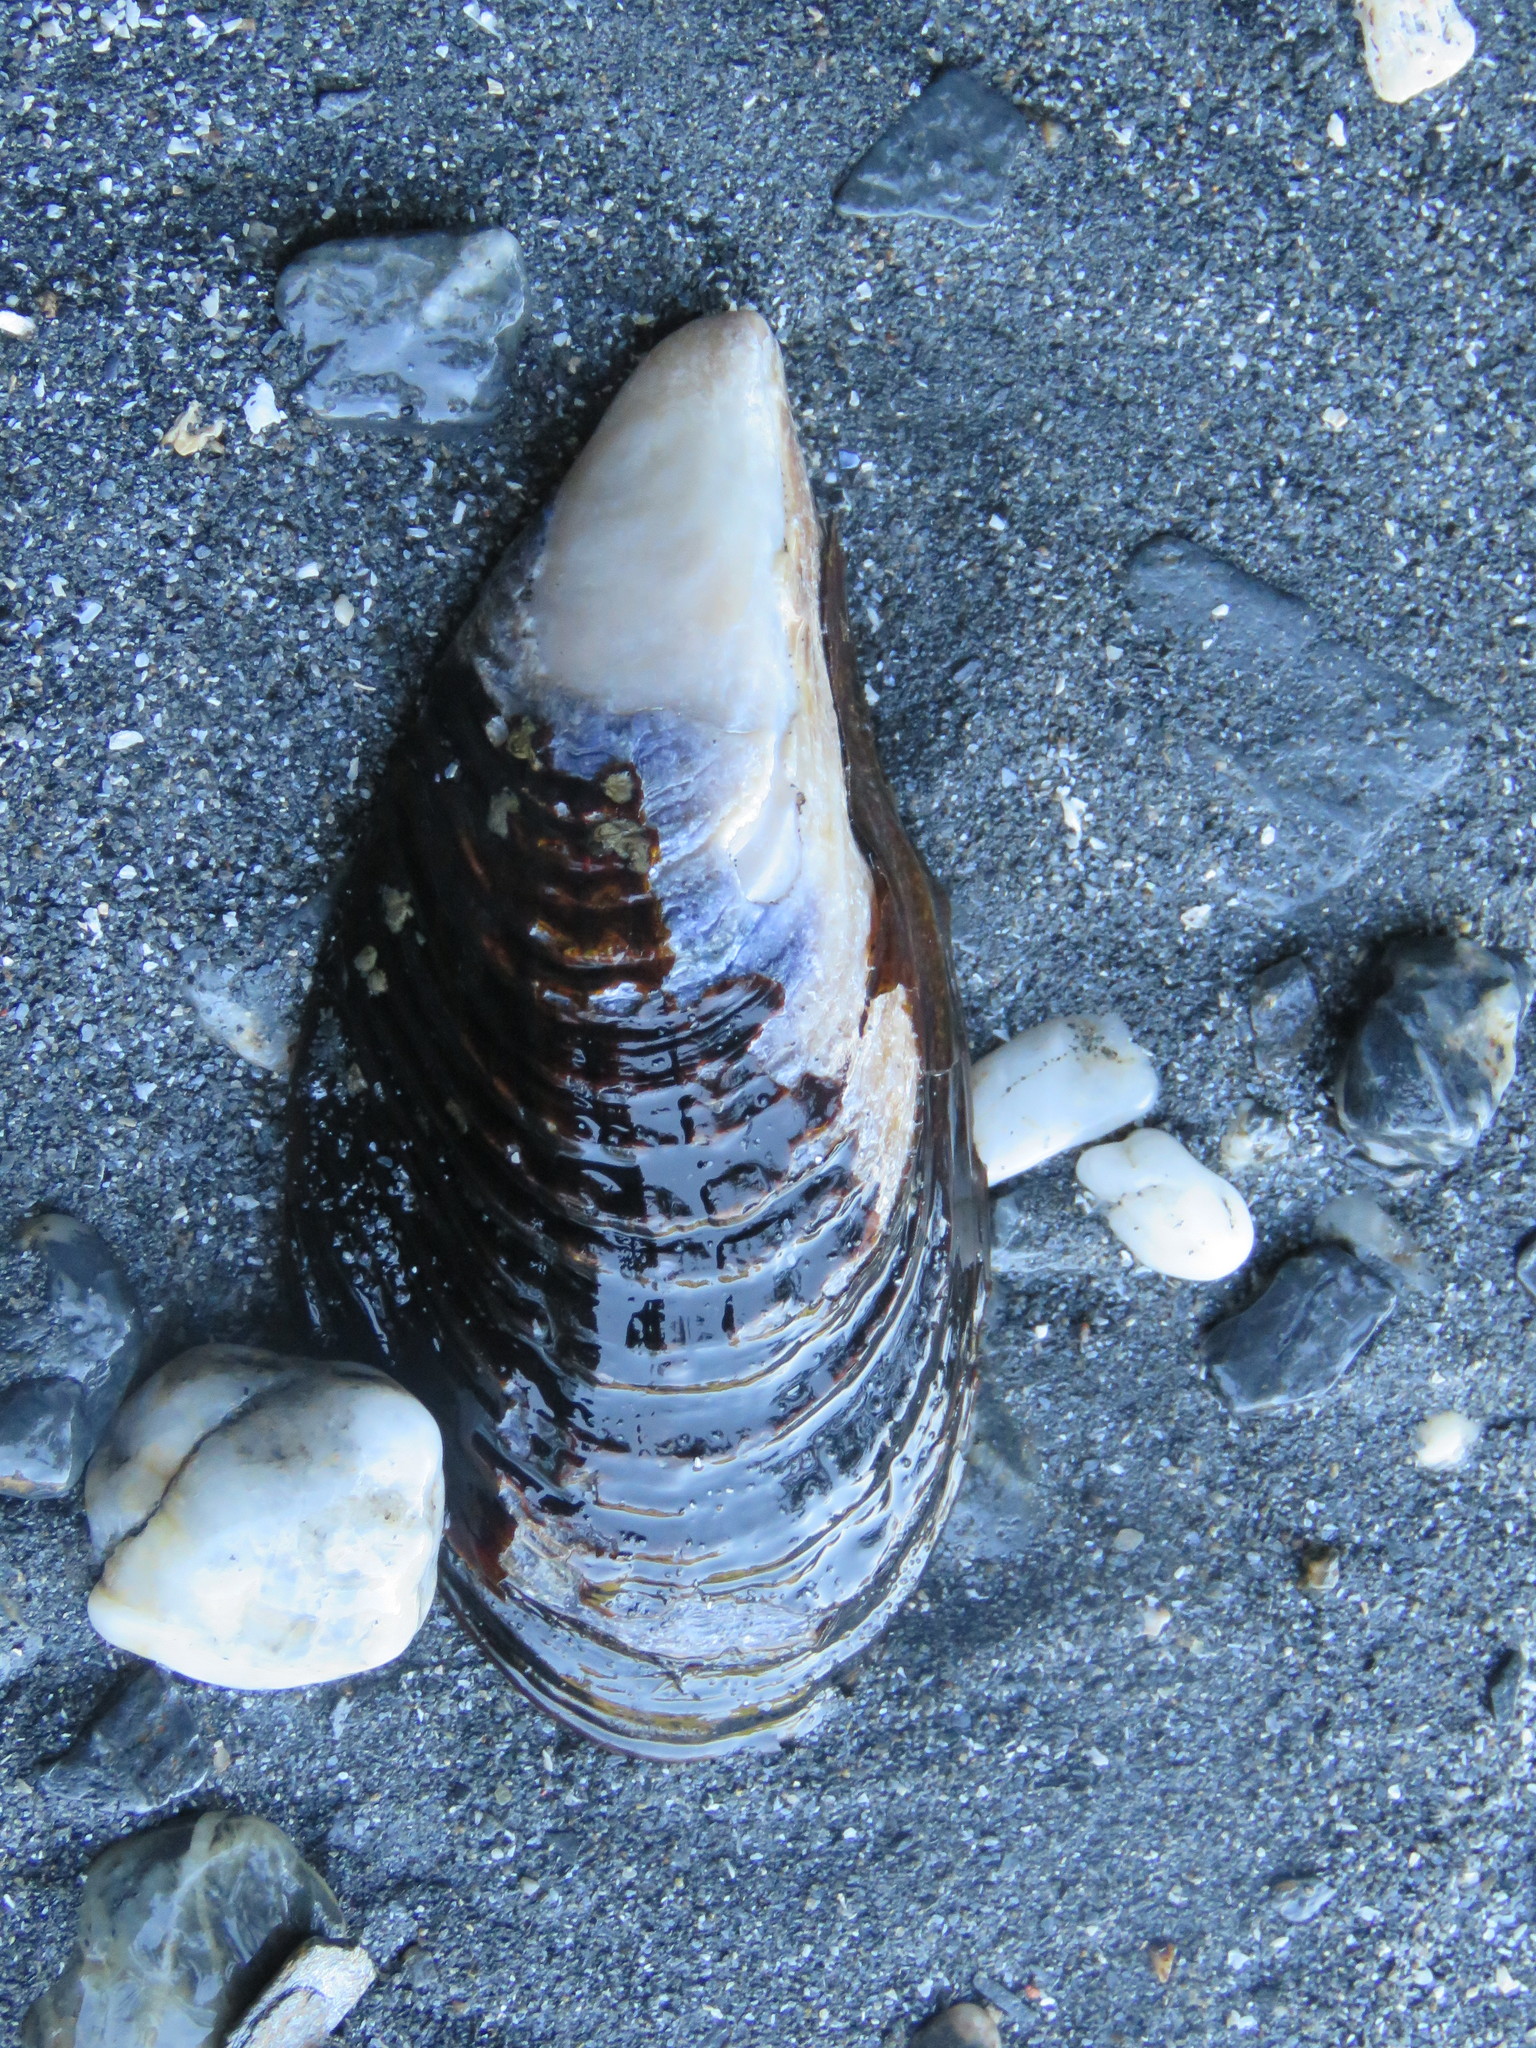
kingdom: Animalia
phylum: Mollusca
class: Bivalvia
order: Mytilida
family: Mytilidae
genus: Mytilus
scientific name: Mytilus californianus
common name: California mussel
